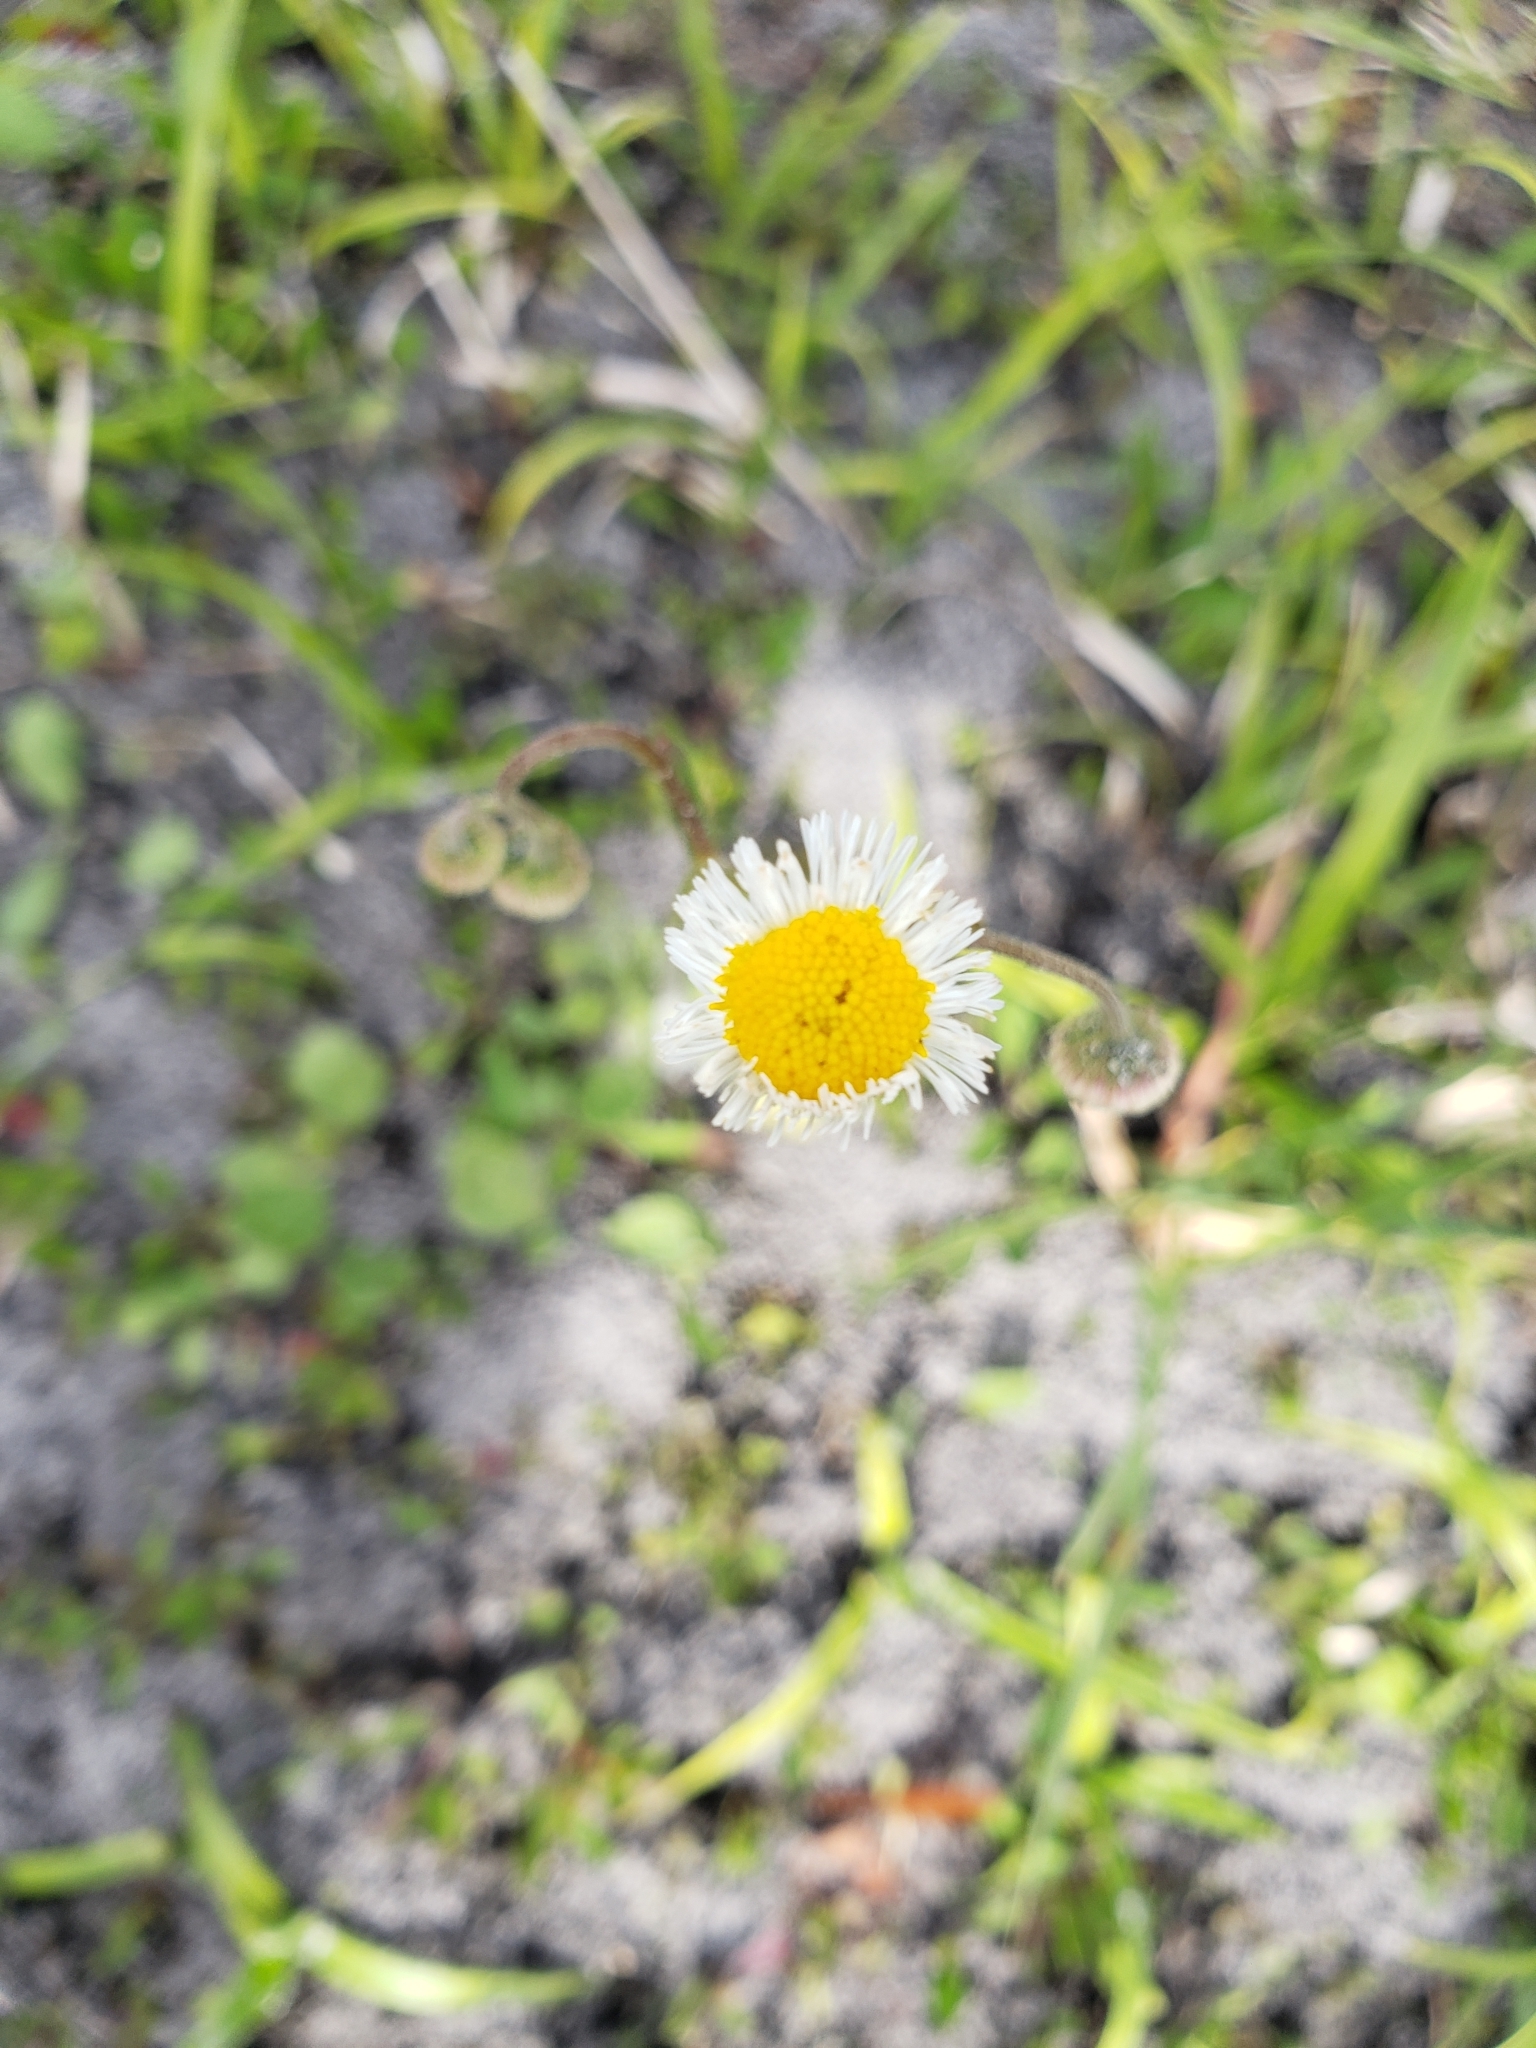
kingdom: Plantae
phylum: Tracheophyta
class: Magnoliopsida
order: Asterales
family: Asteraceae
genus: Erigeron
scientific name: Erigeron quercifolius
